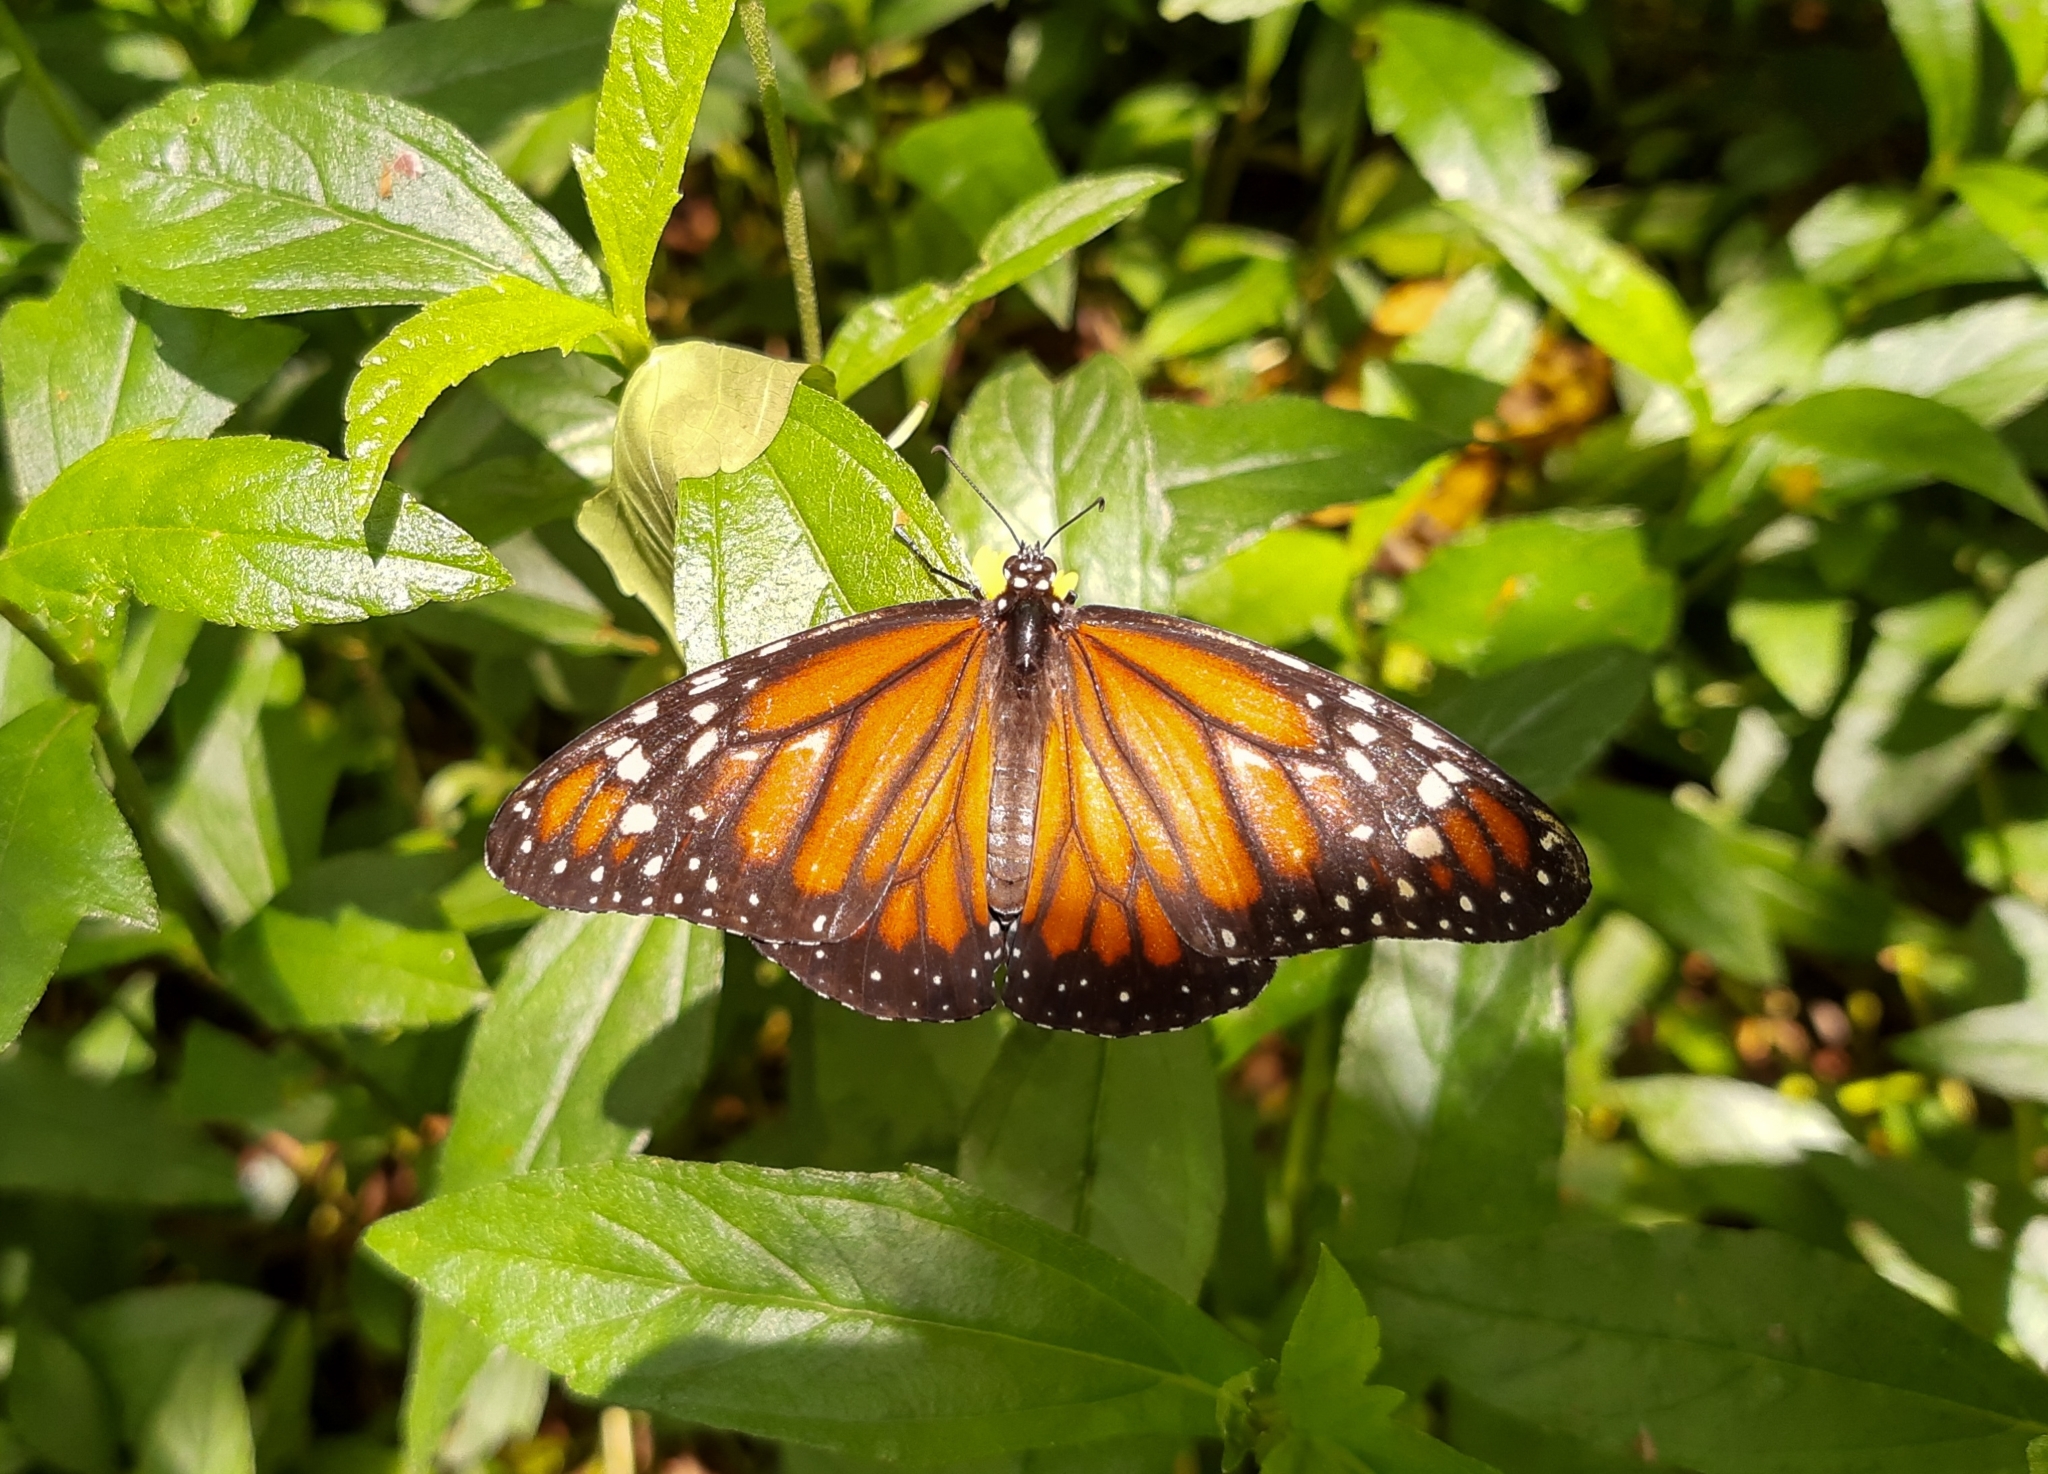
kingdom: Animalia
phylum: Arthropoda
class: Insecta
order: Lepidoptera
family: Nymphalidae
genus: Danaus
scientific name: Danaus erippus
